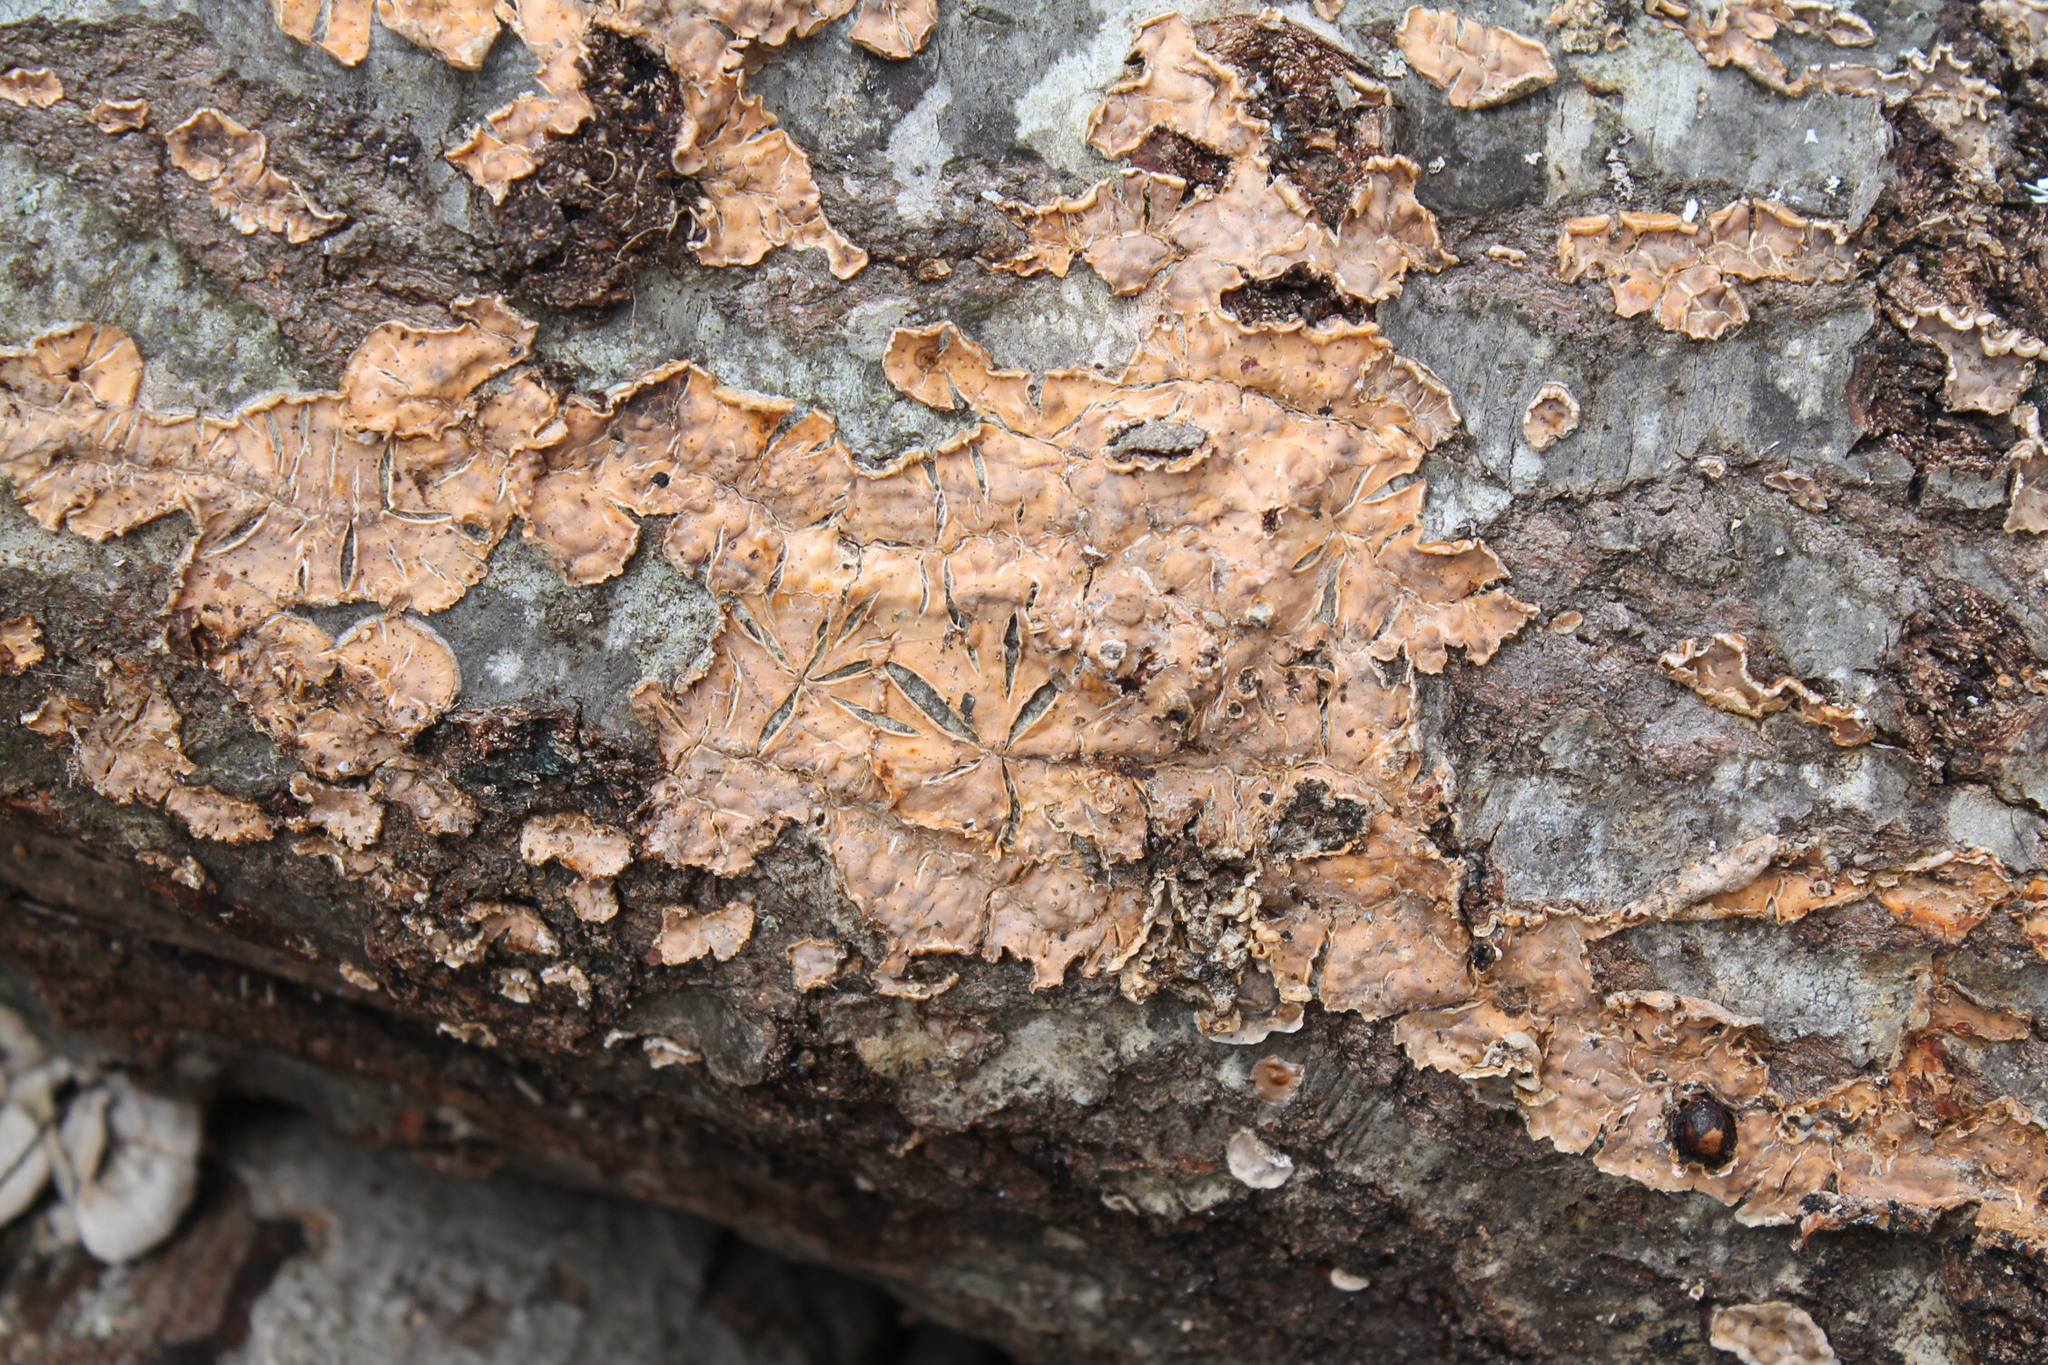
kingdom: Fungi
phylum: Basidiomycota
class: Agaricomycetes
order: Russulales
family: Stereaceae
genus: Stereum
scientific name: Stereum complicatum
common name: Crowded parchment
